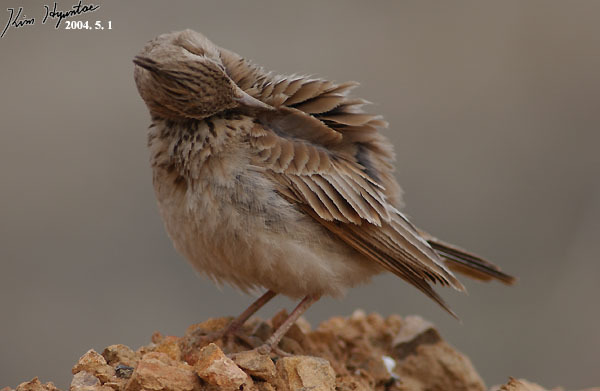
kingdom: Animalia
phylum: Chordata
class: Aves
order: Passeriformes
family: Alaudidae
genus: Galerida
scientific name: Galerida cristata
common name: Crested lark
